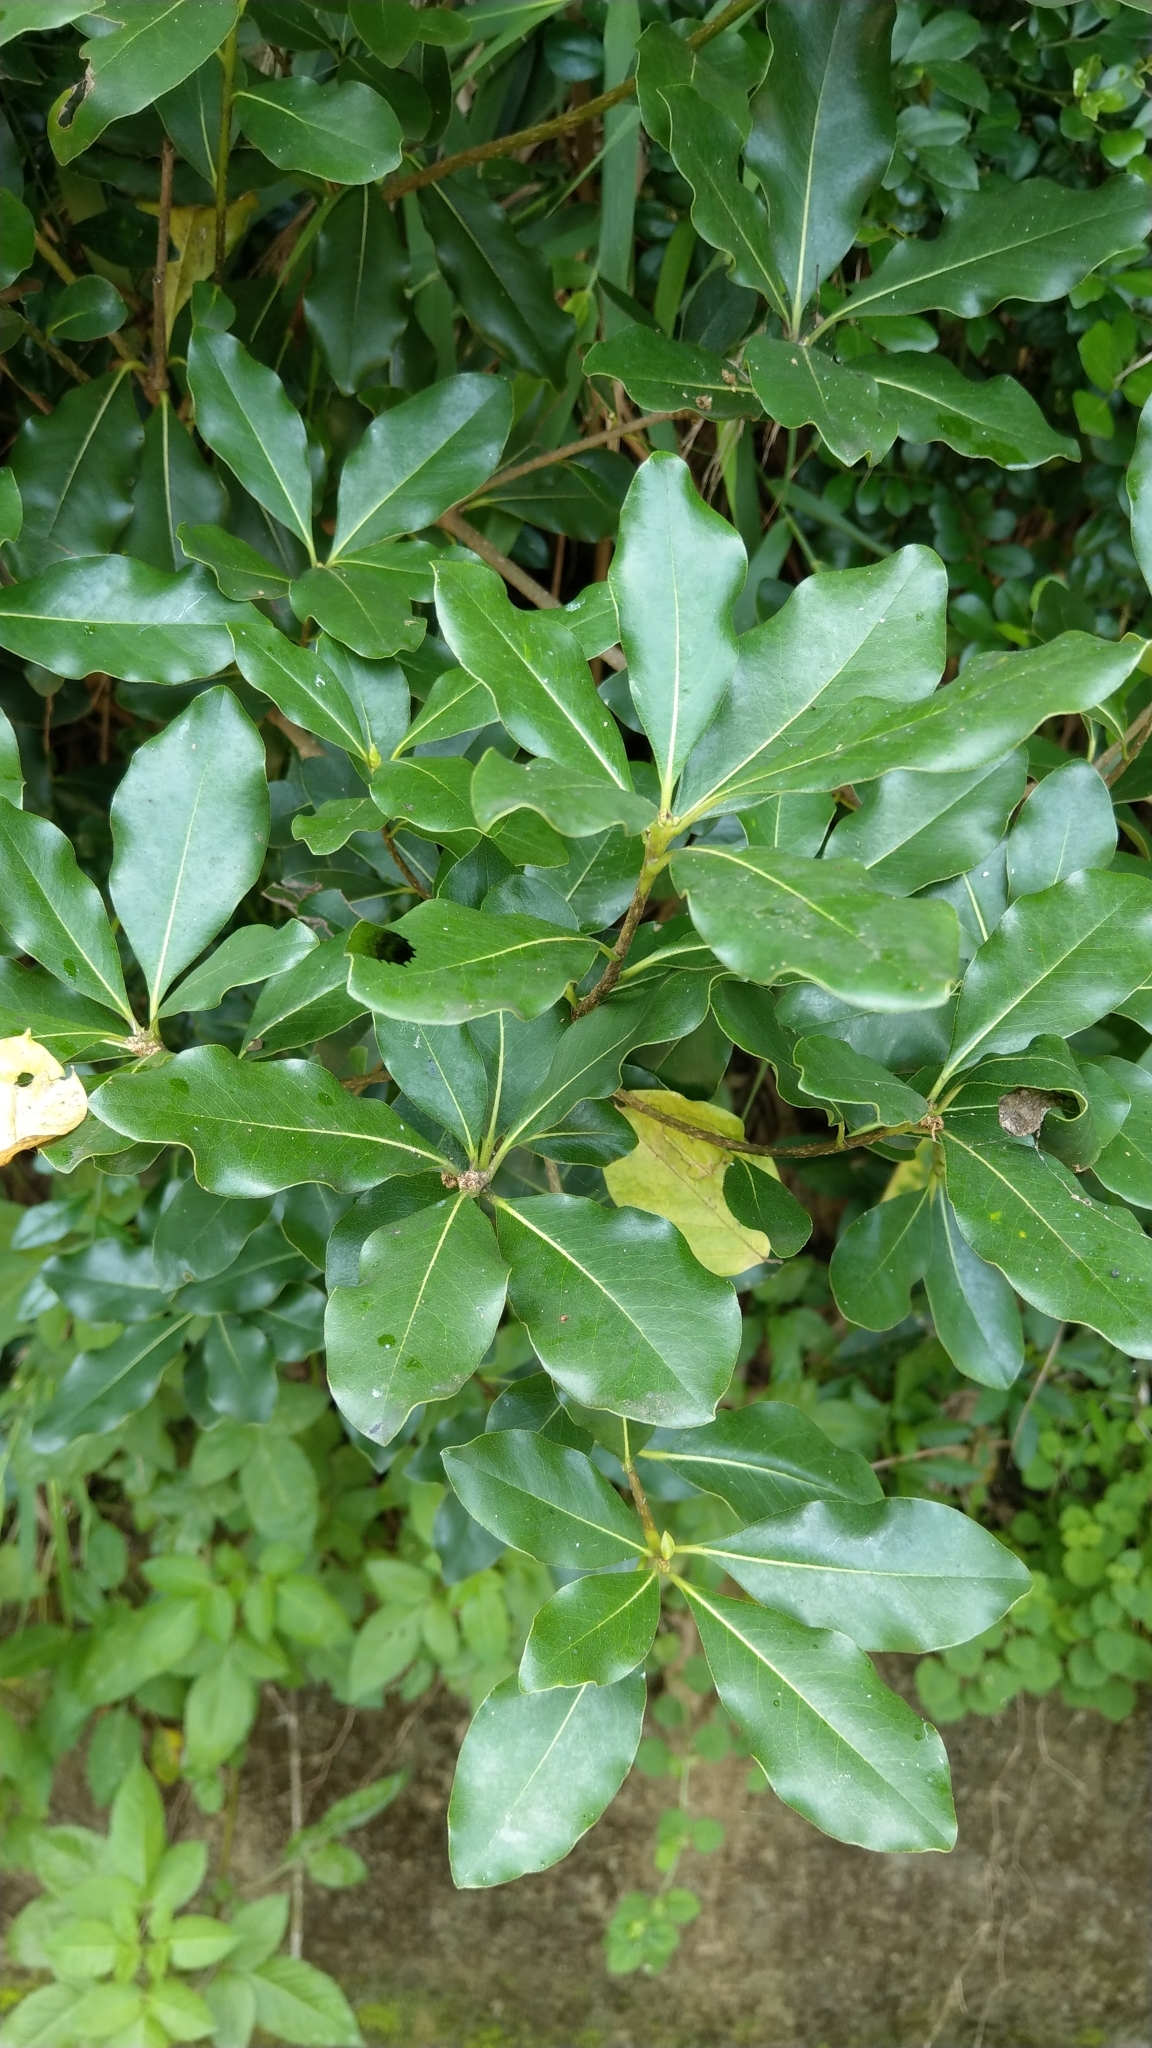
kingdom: Plantae
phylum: Tracheophyta
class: Magnoliopsida
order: Apiales
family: Pittosporaceae
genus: Pittosporum
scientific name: Pittosporum tobira
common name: Japanese cheesewood
